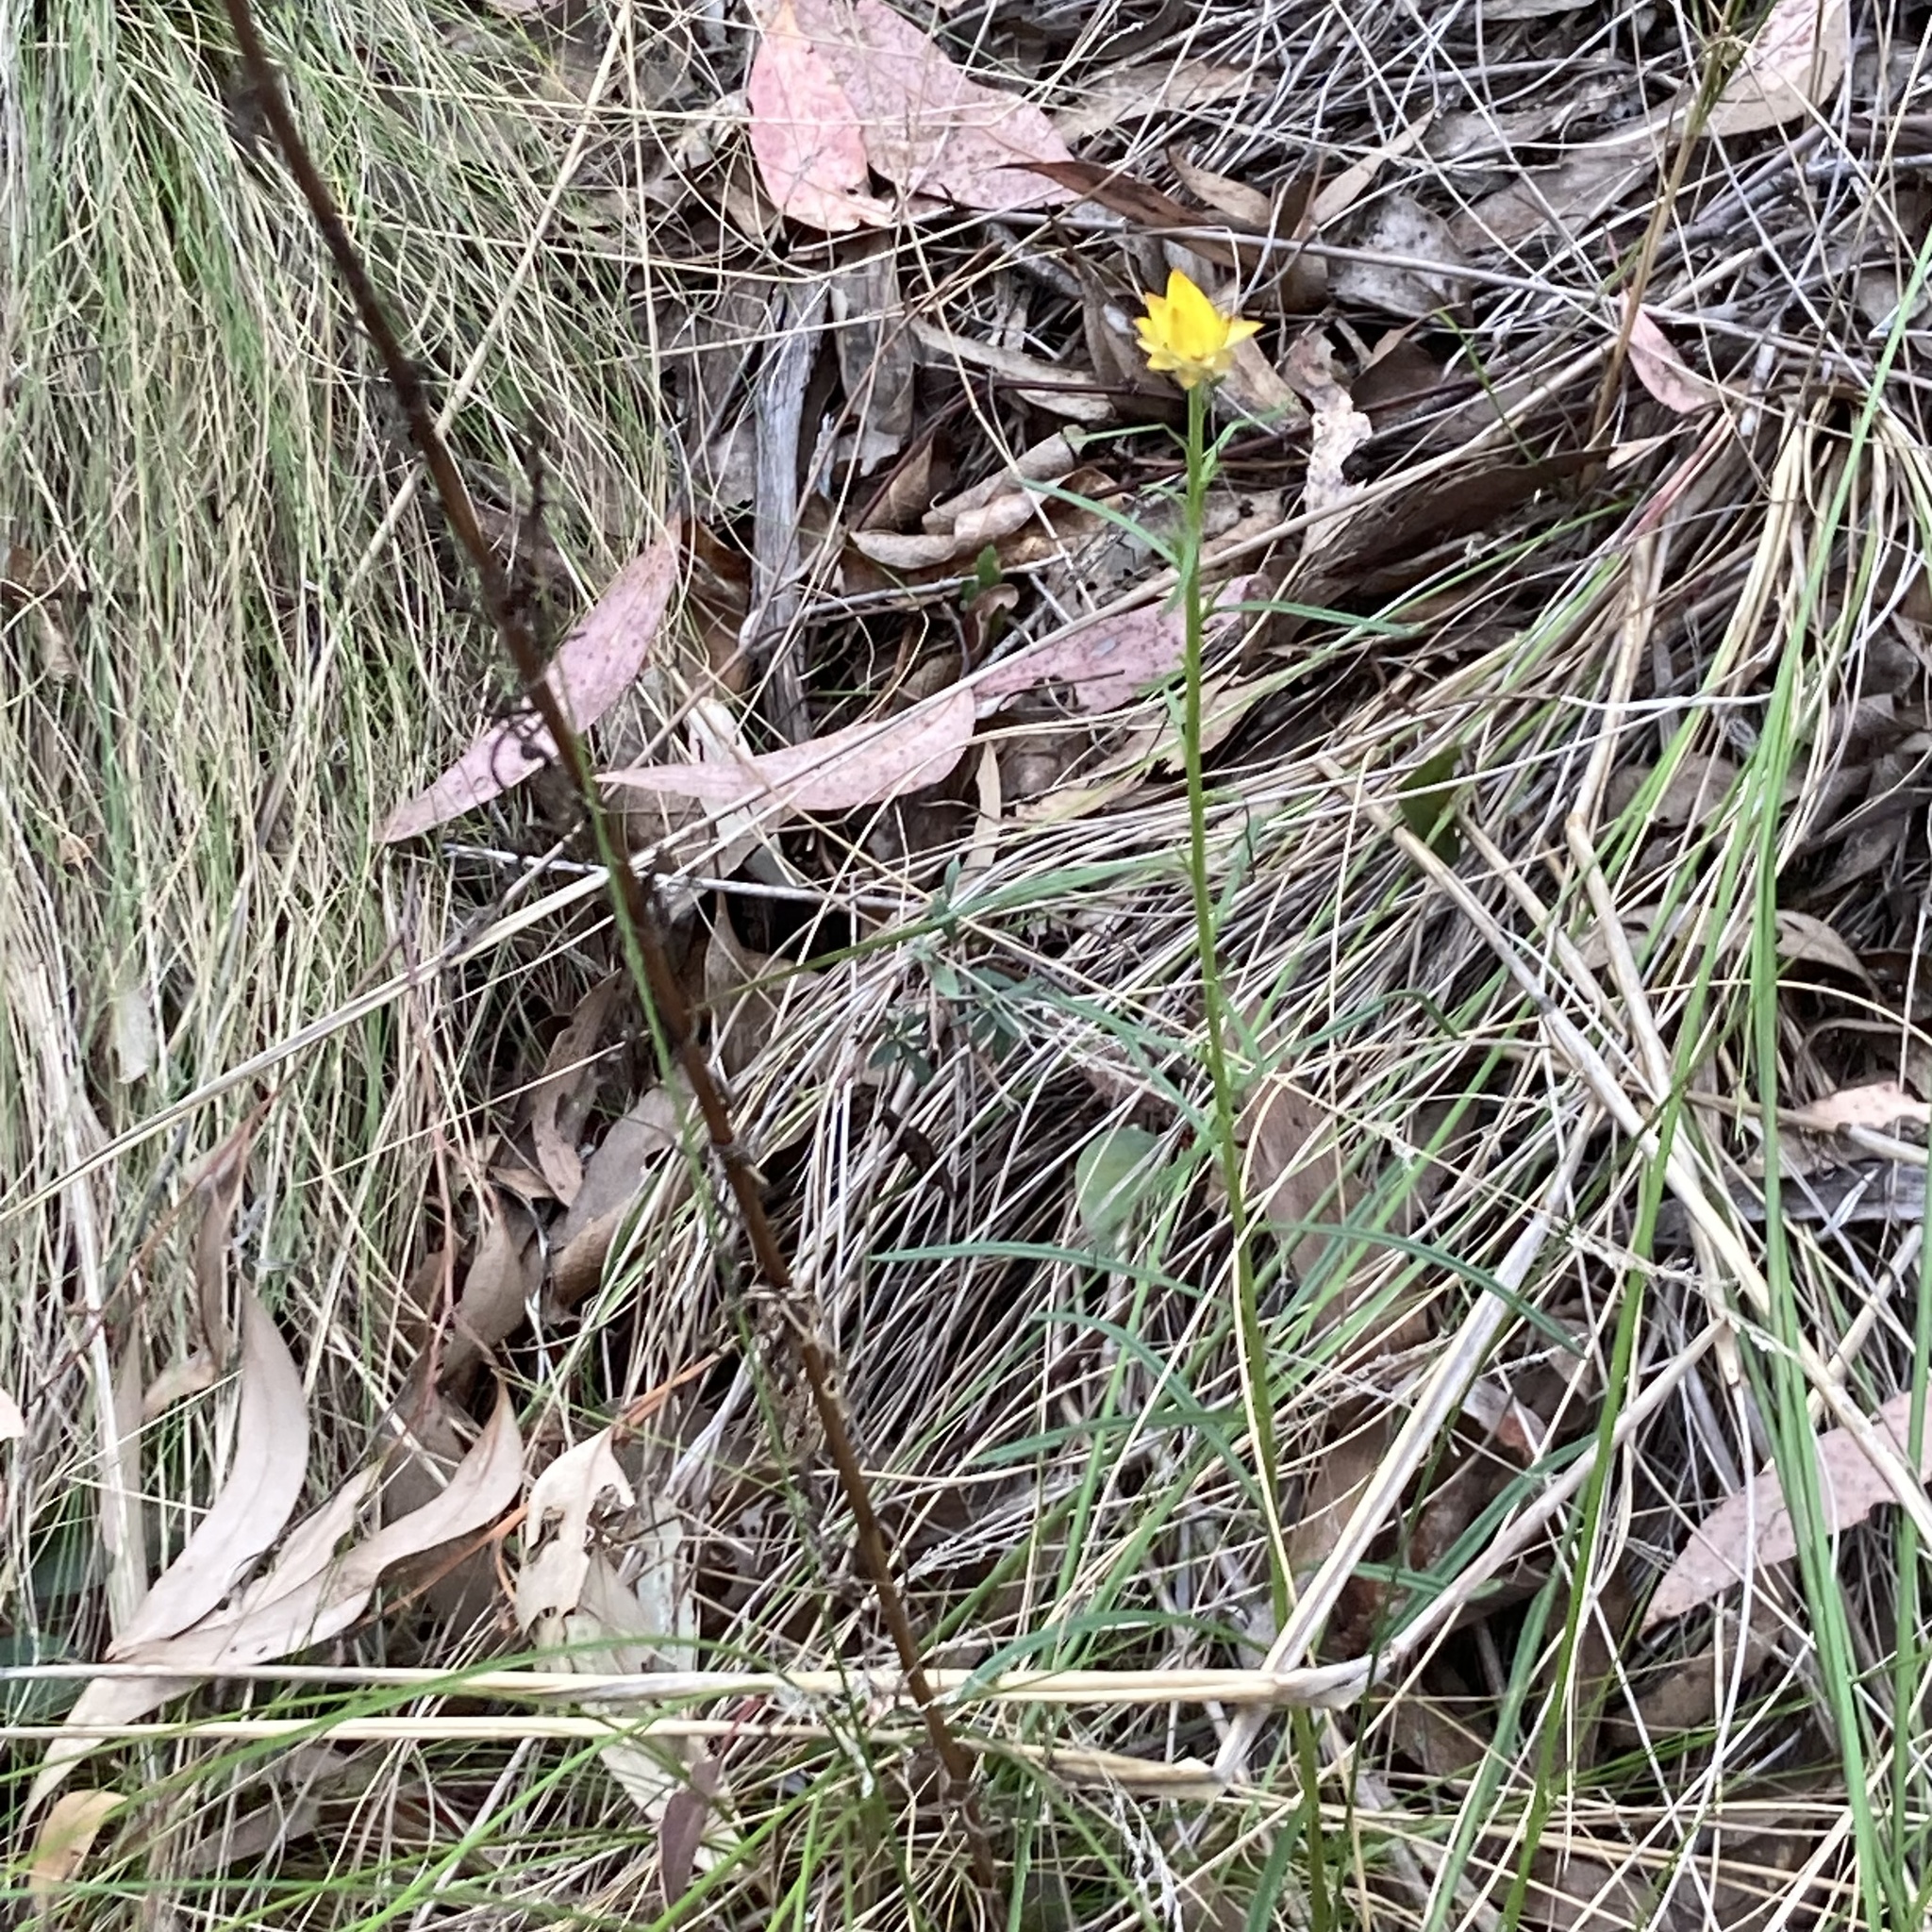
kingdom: Plantae
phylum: Tracheophyta
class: Magnoliopsida
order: Asterales
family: Asteraceae
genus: Xerochrysum
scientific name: Xerochrysum viscosum
